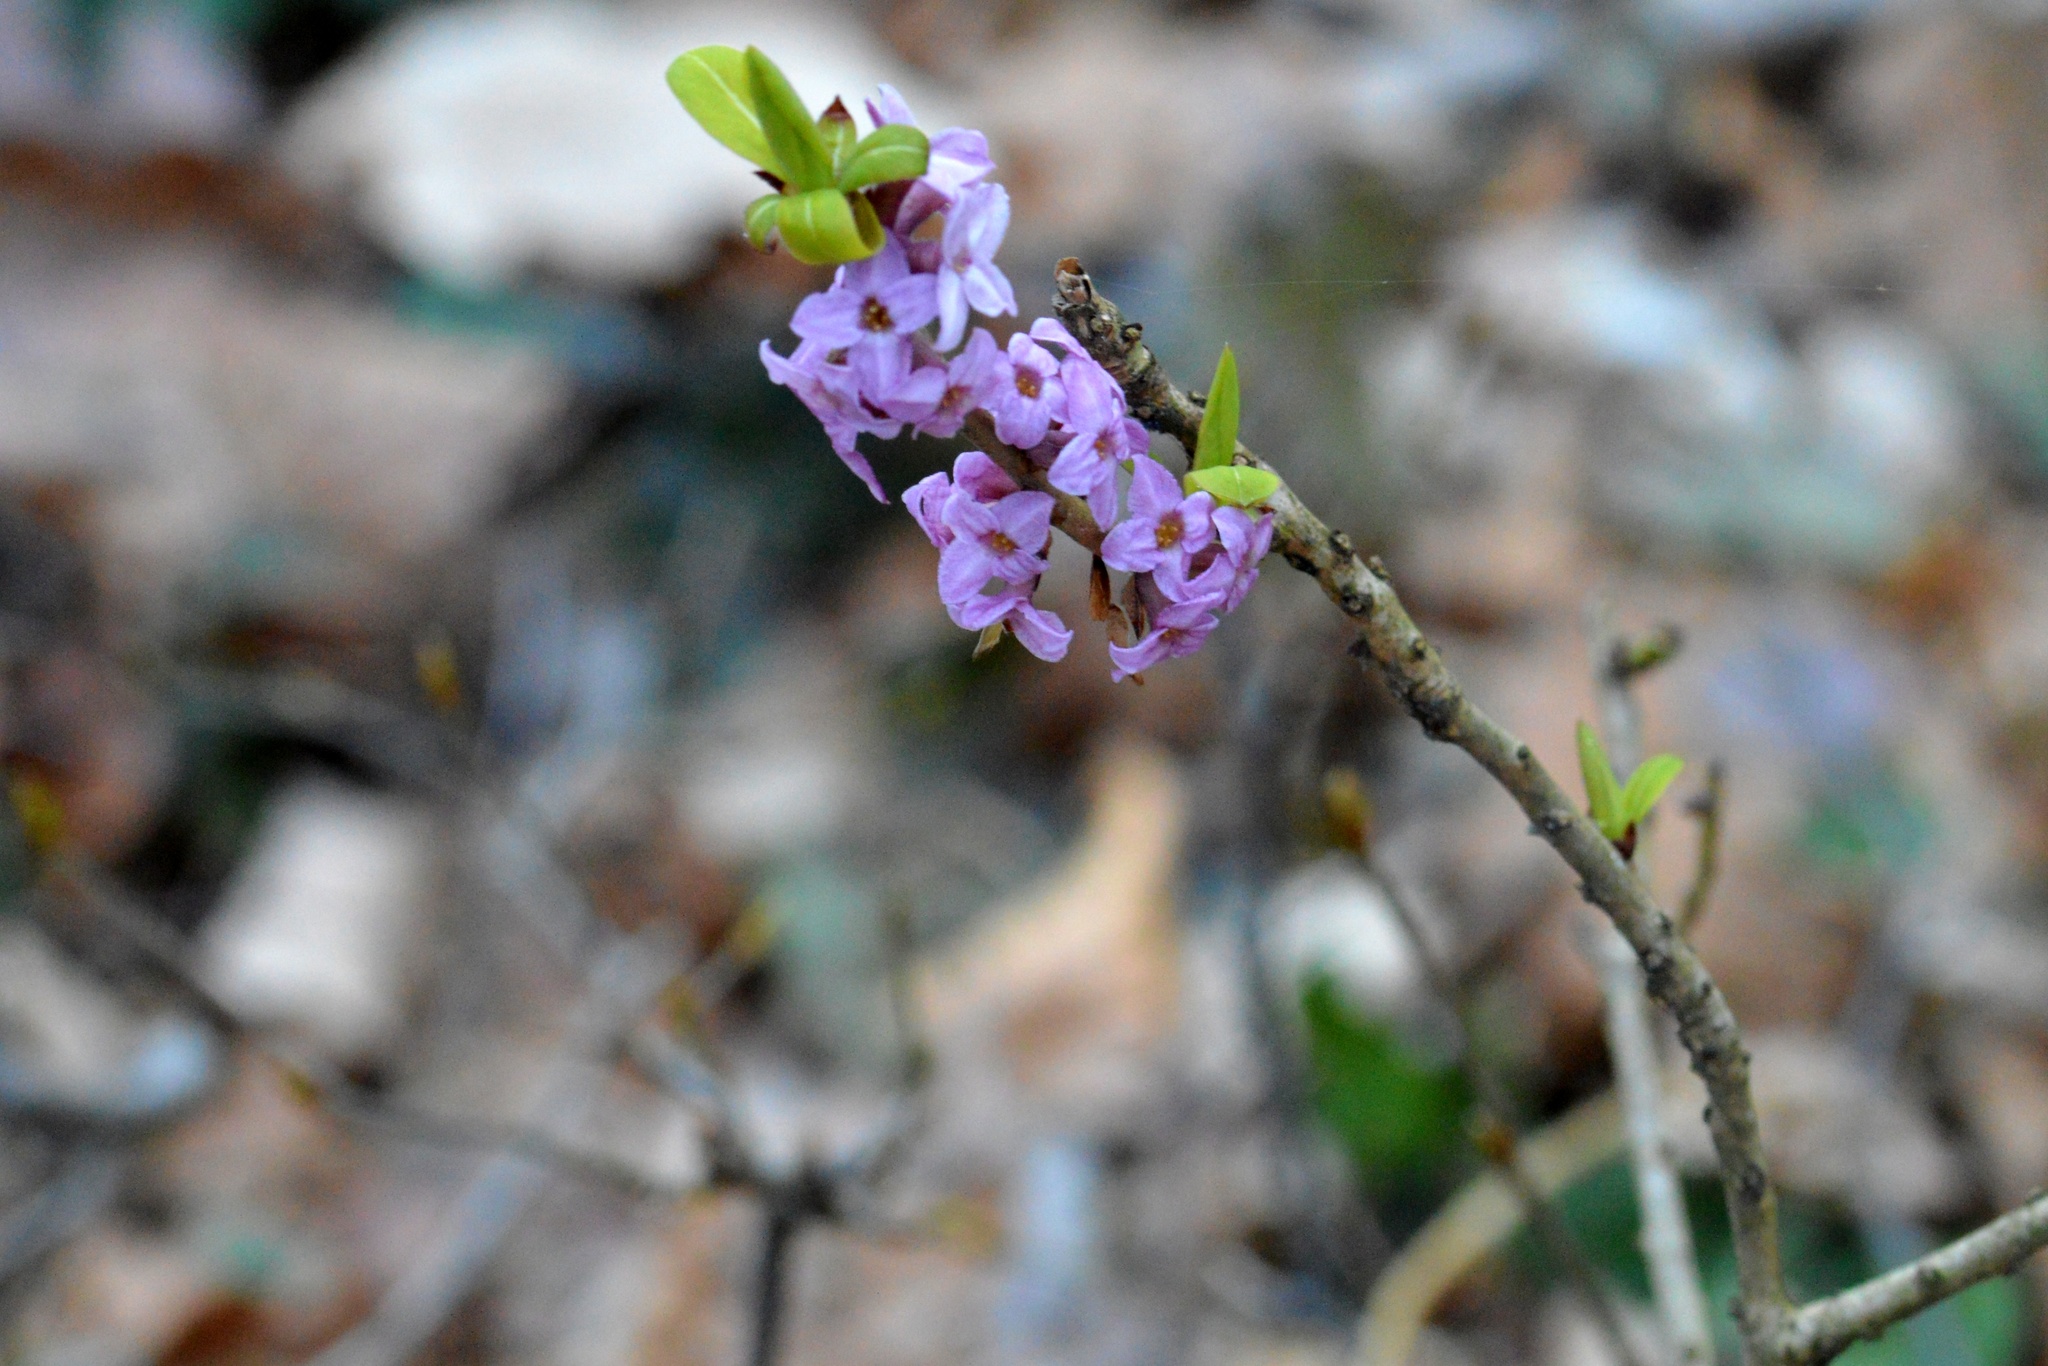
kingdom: Plantae
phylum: Tracheophyta
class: Magnoliopsida
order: Malvales
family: Thymelaeaceae
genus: Daphne
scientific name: Daphne mezereum
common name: Mezereon
